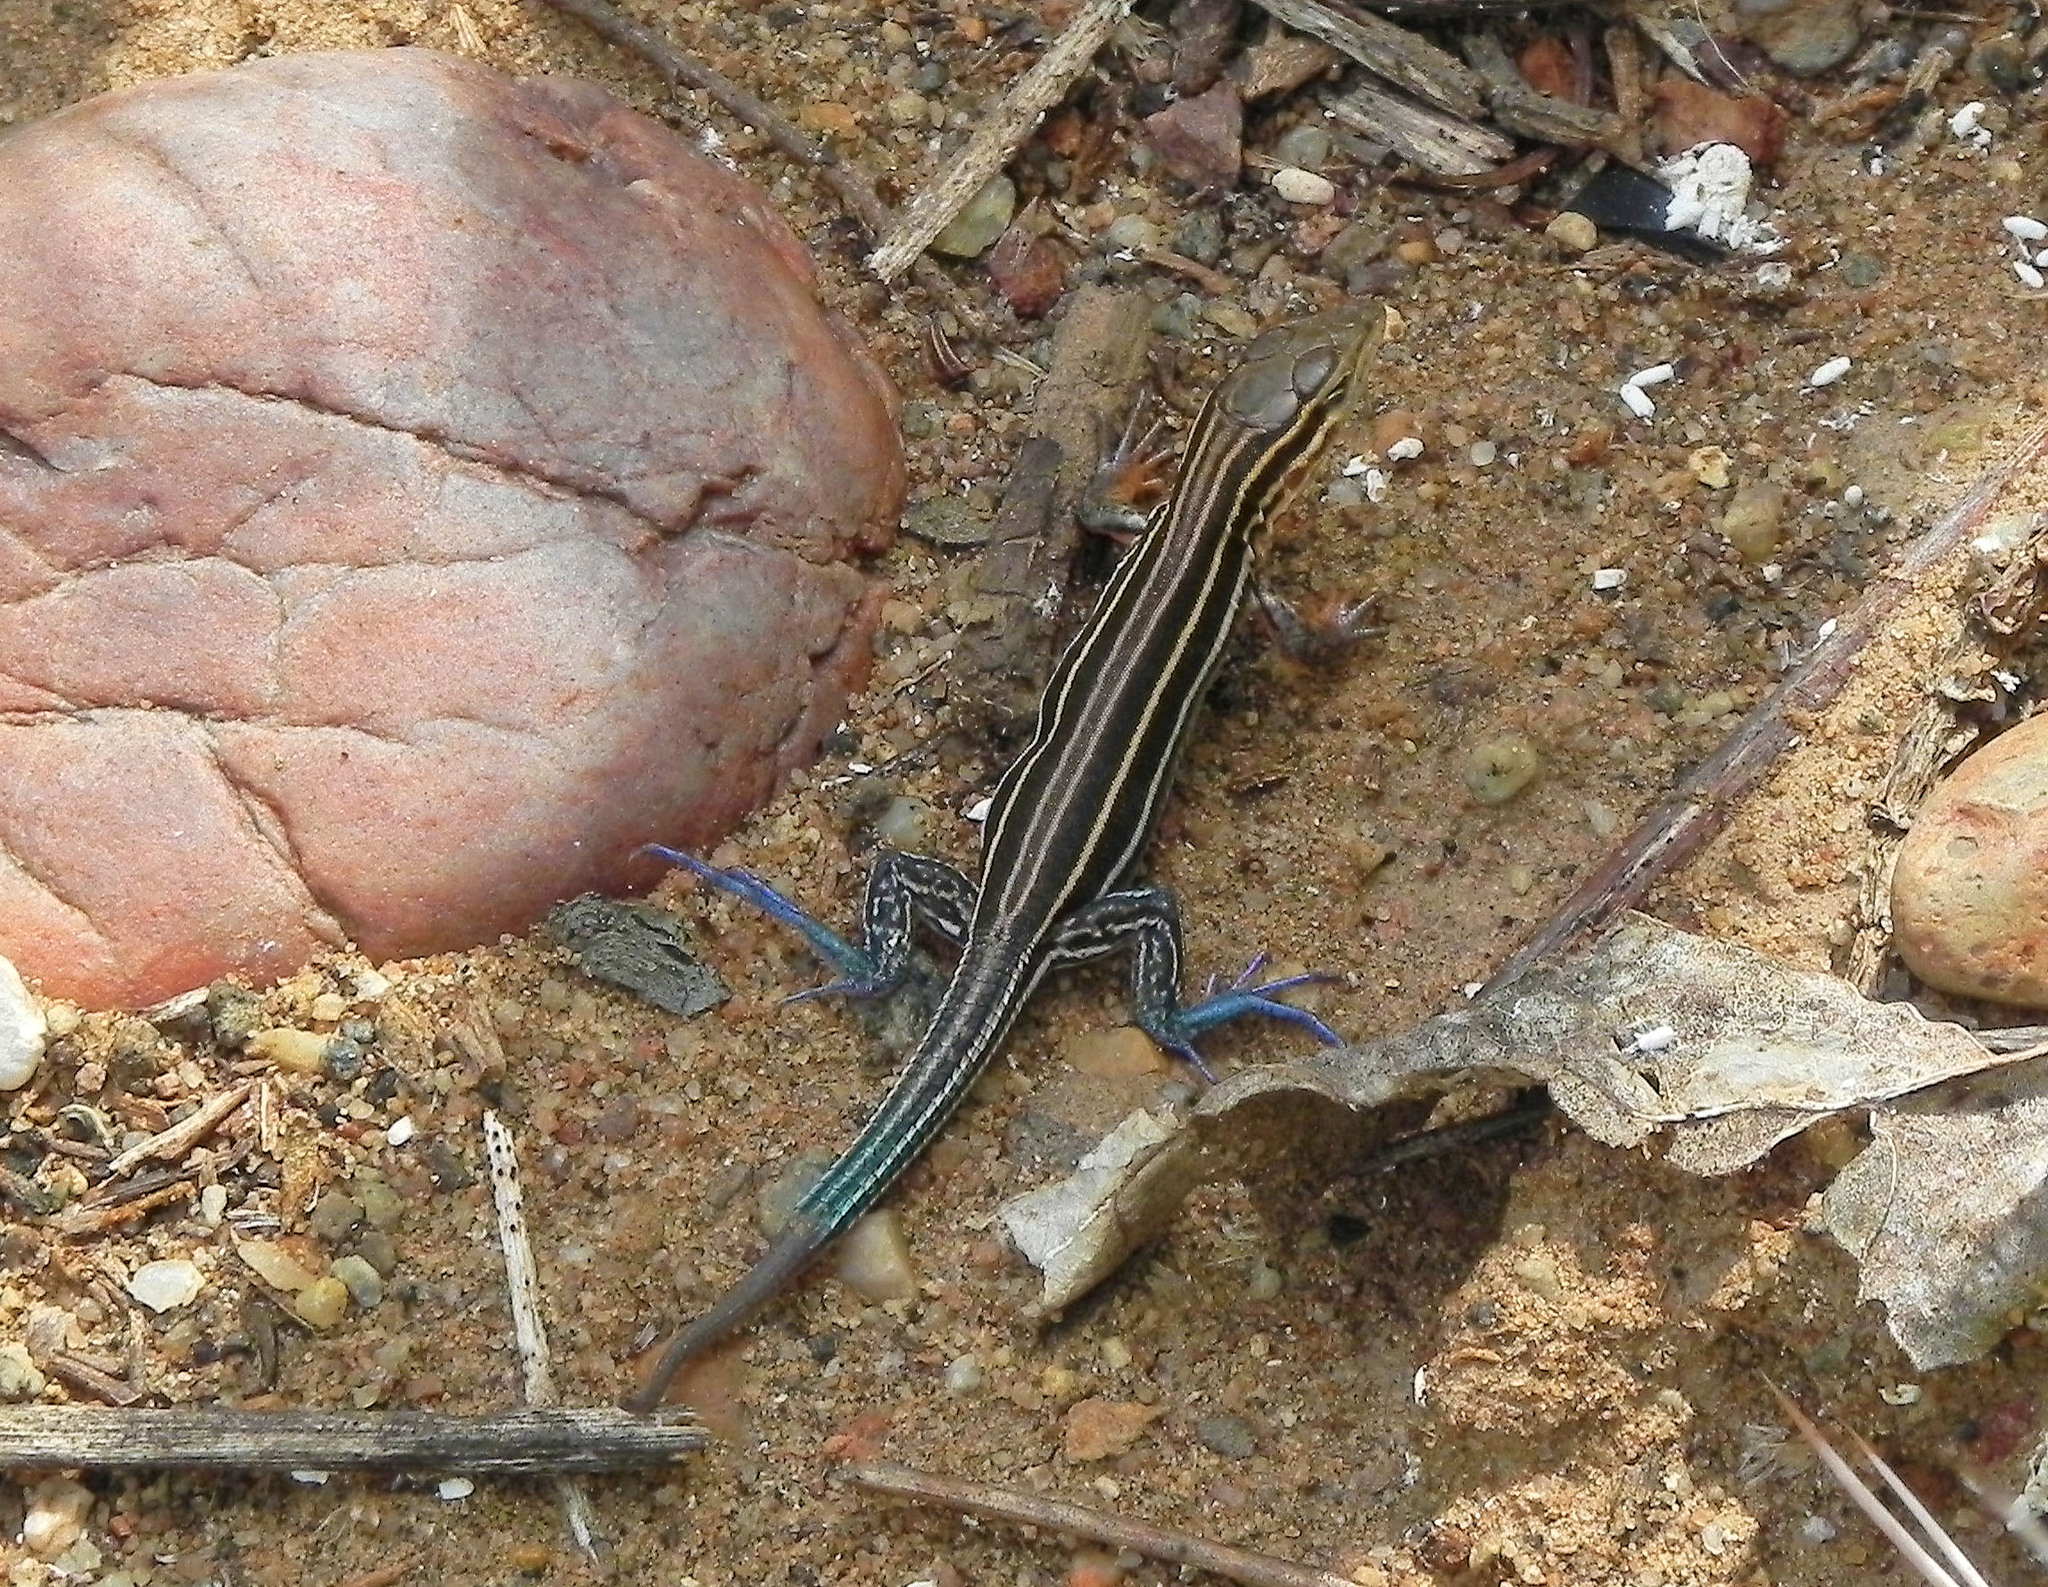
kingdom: Animalia
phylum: Chordata
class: Squamata
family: Teiidae
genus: Aspidoscelis
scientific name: Aspidoscelis hyperythrus
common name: Orange-throated race-runner
